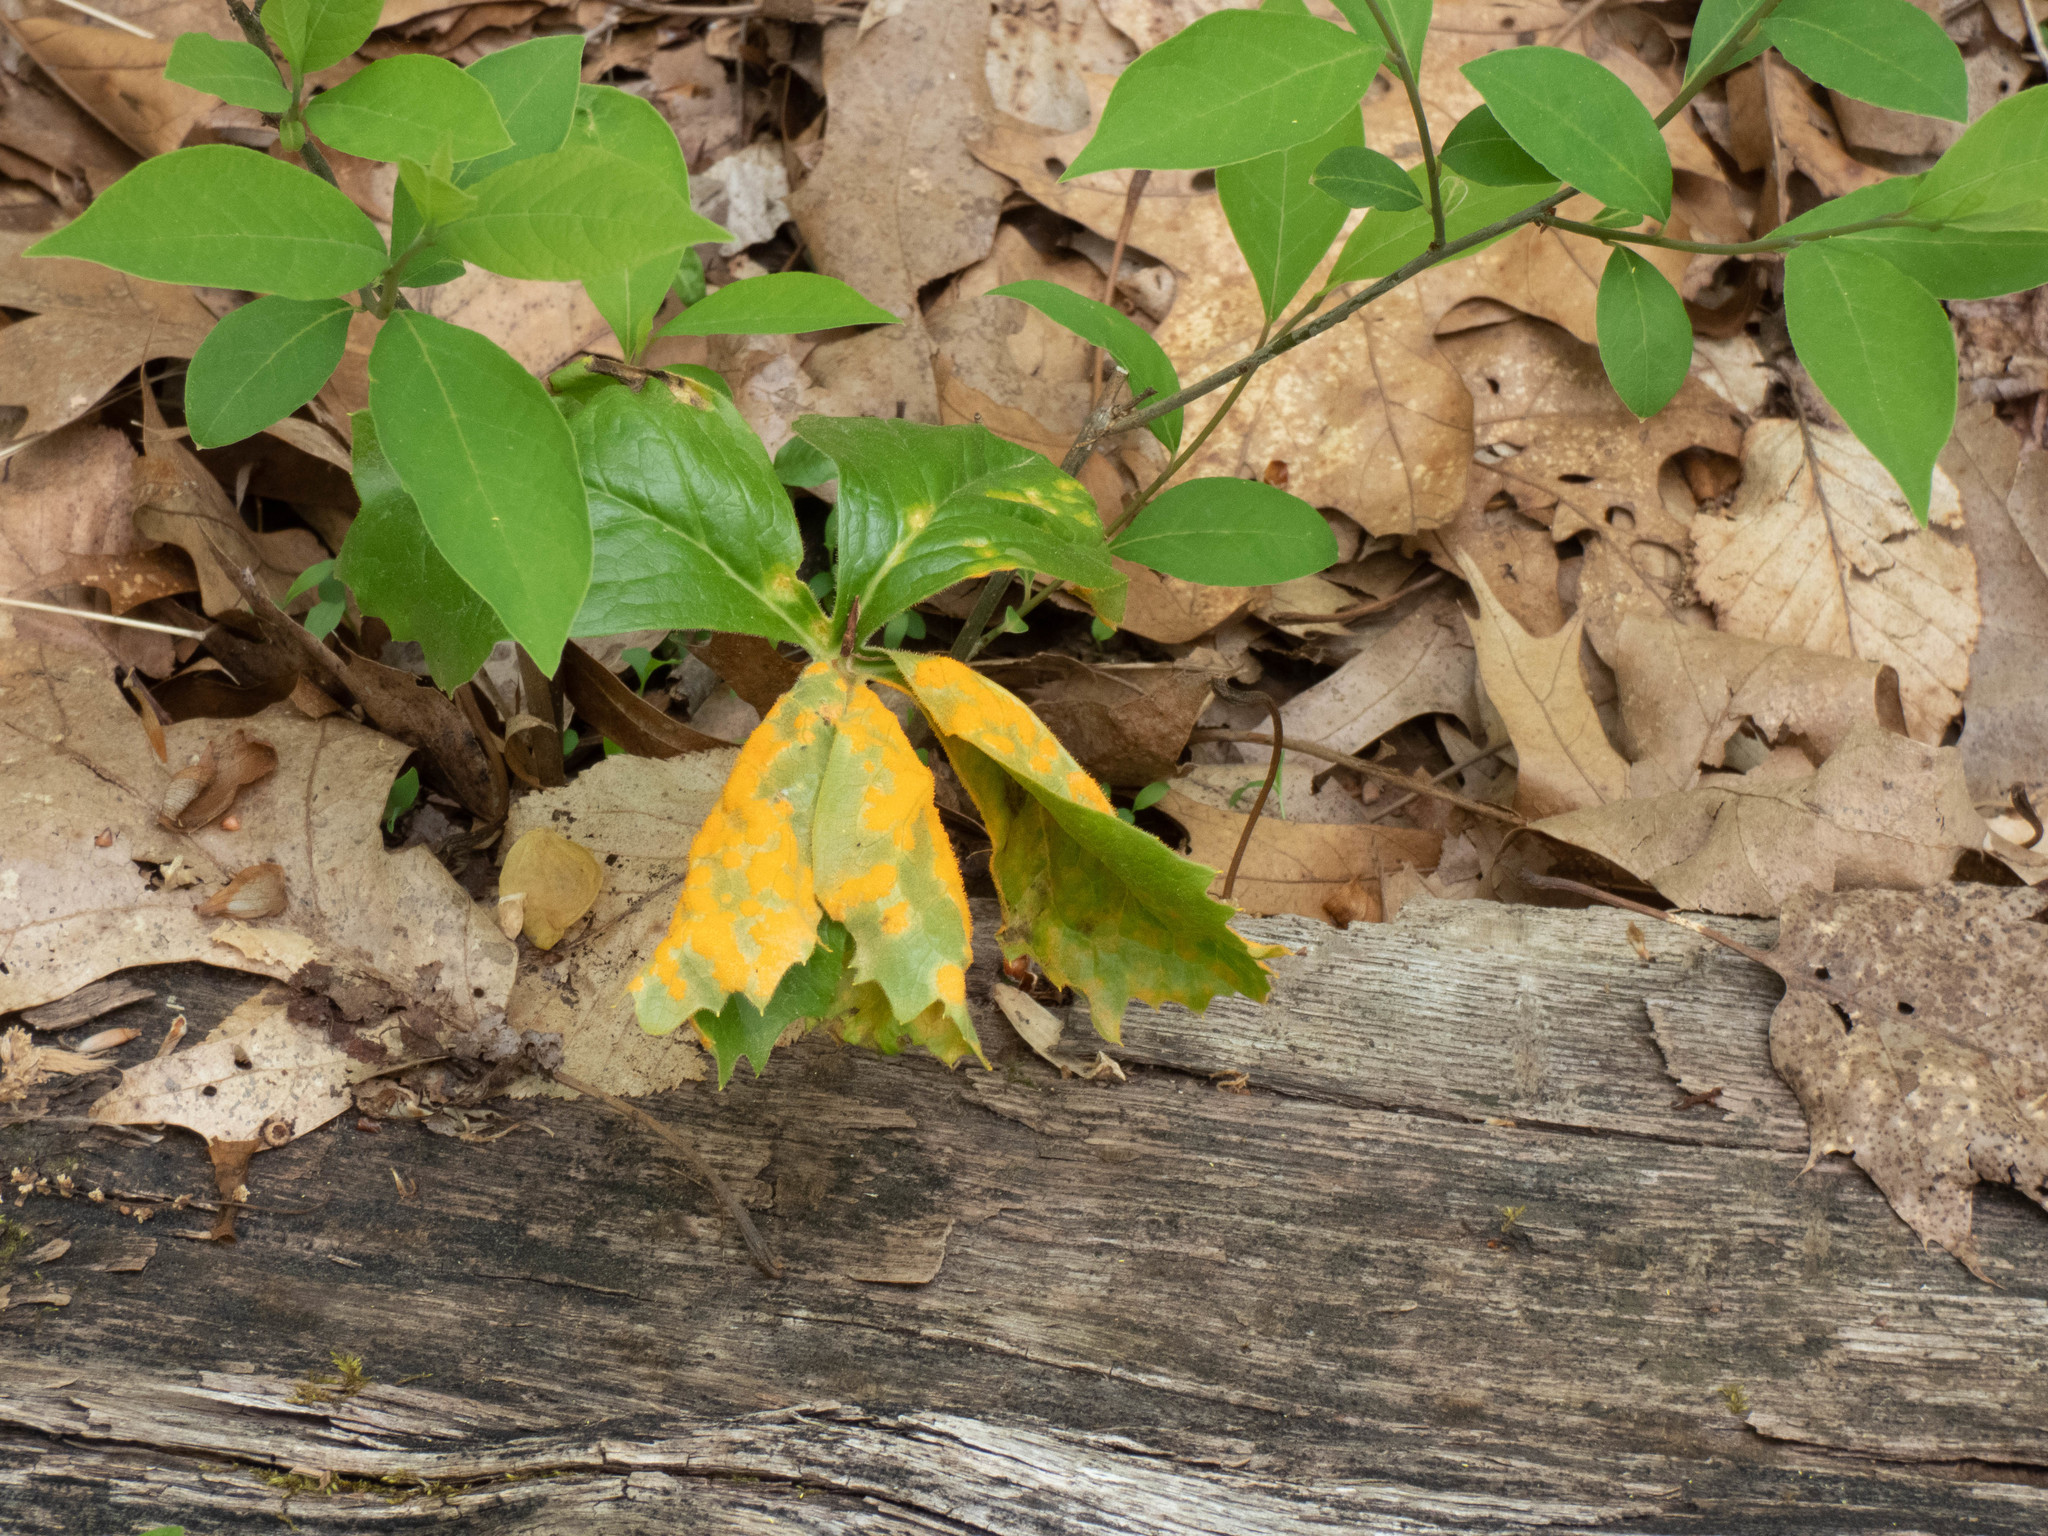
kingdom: Fungi
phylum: Basidiomycota
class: Pucciniomycetes
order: Pucciniales
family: Pucciniaceae
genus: Puccinia
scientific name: Puccinia podophylli
